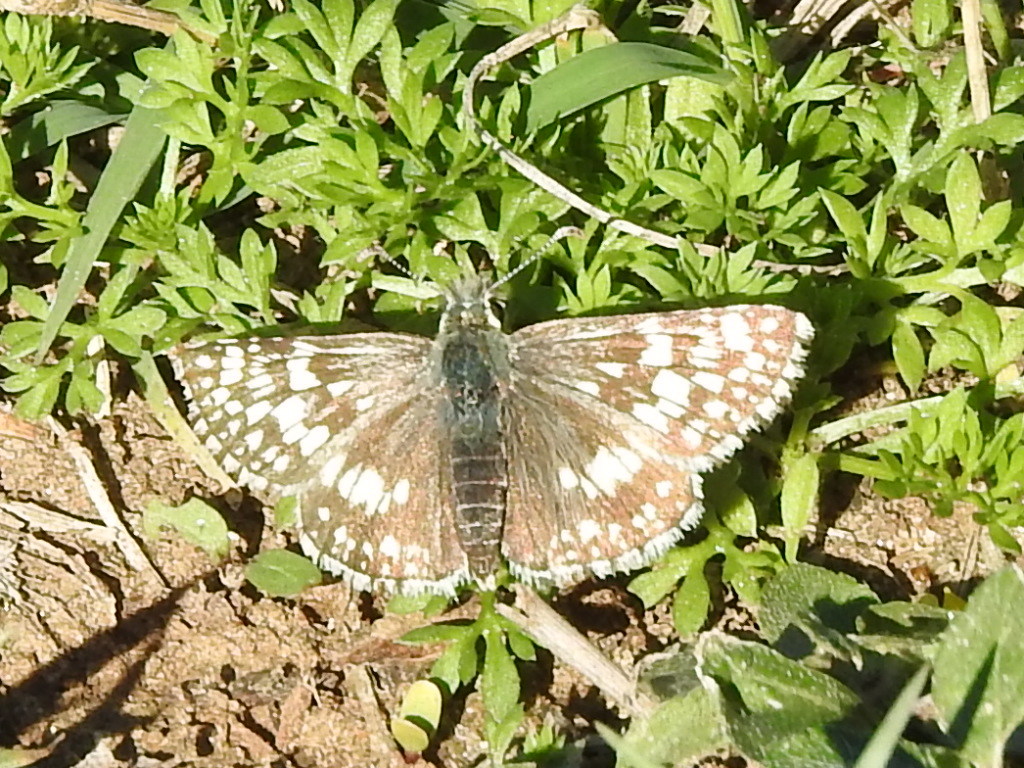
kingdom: Animalia
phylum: Arthropoda
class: Insecta
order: Lepidoptera
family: Hesperiidae
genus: Burnsius
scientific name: Burnsius
